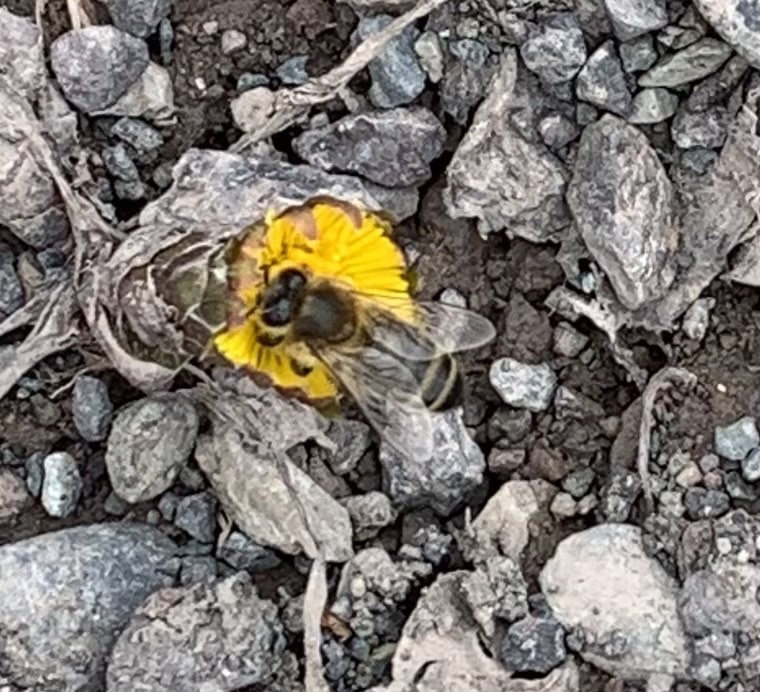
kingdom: Animalia
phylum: Arthropoda
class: Insecta
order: Hymenoptera
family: Apidae
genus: Apis
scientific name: Apis mellifera
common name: Honey bee
